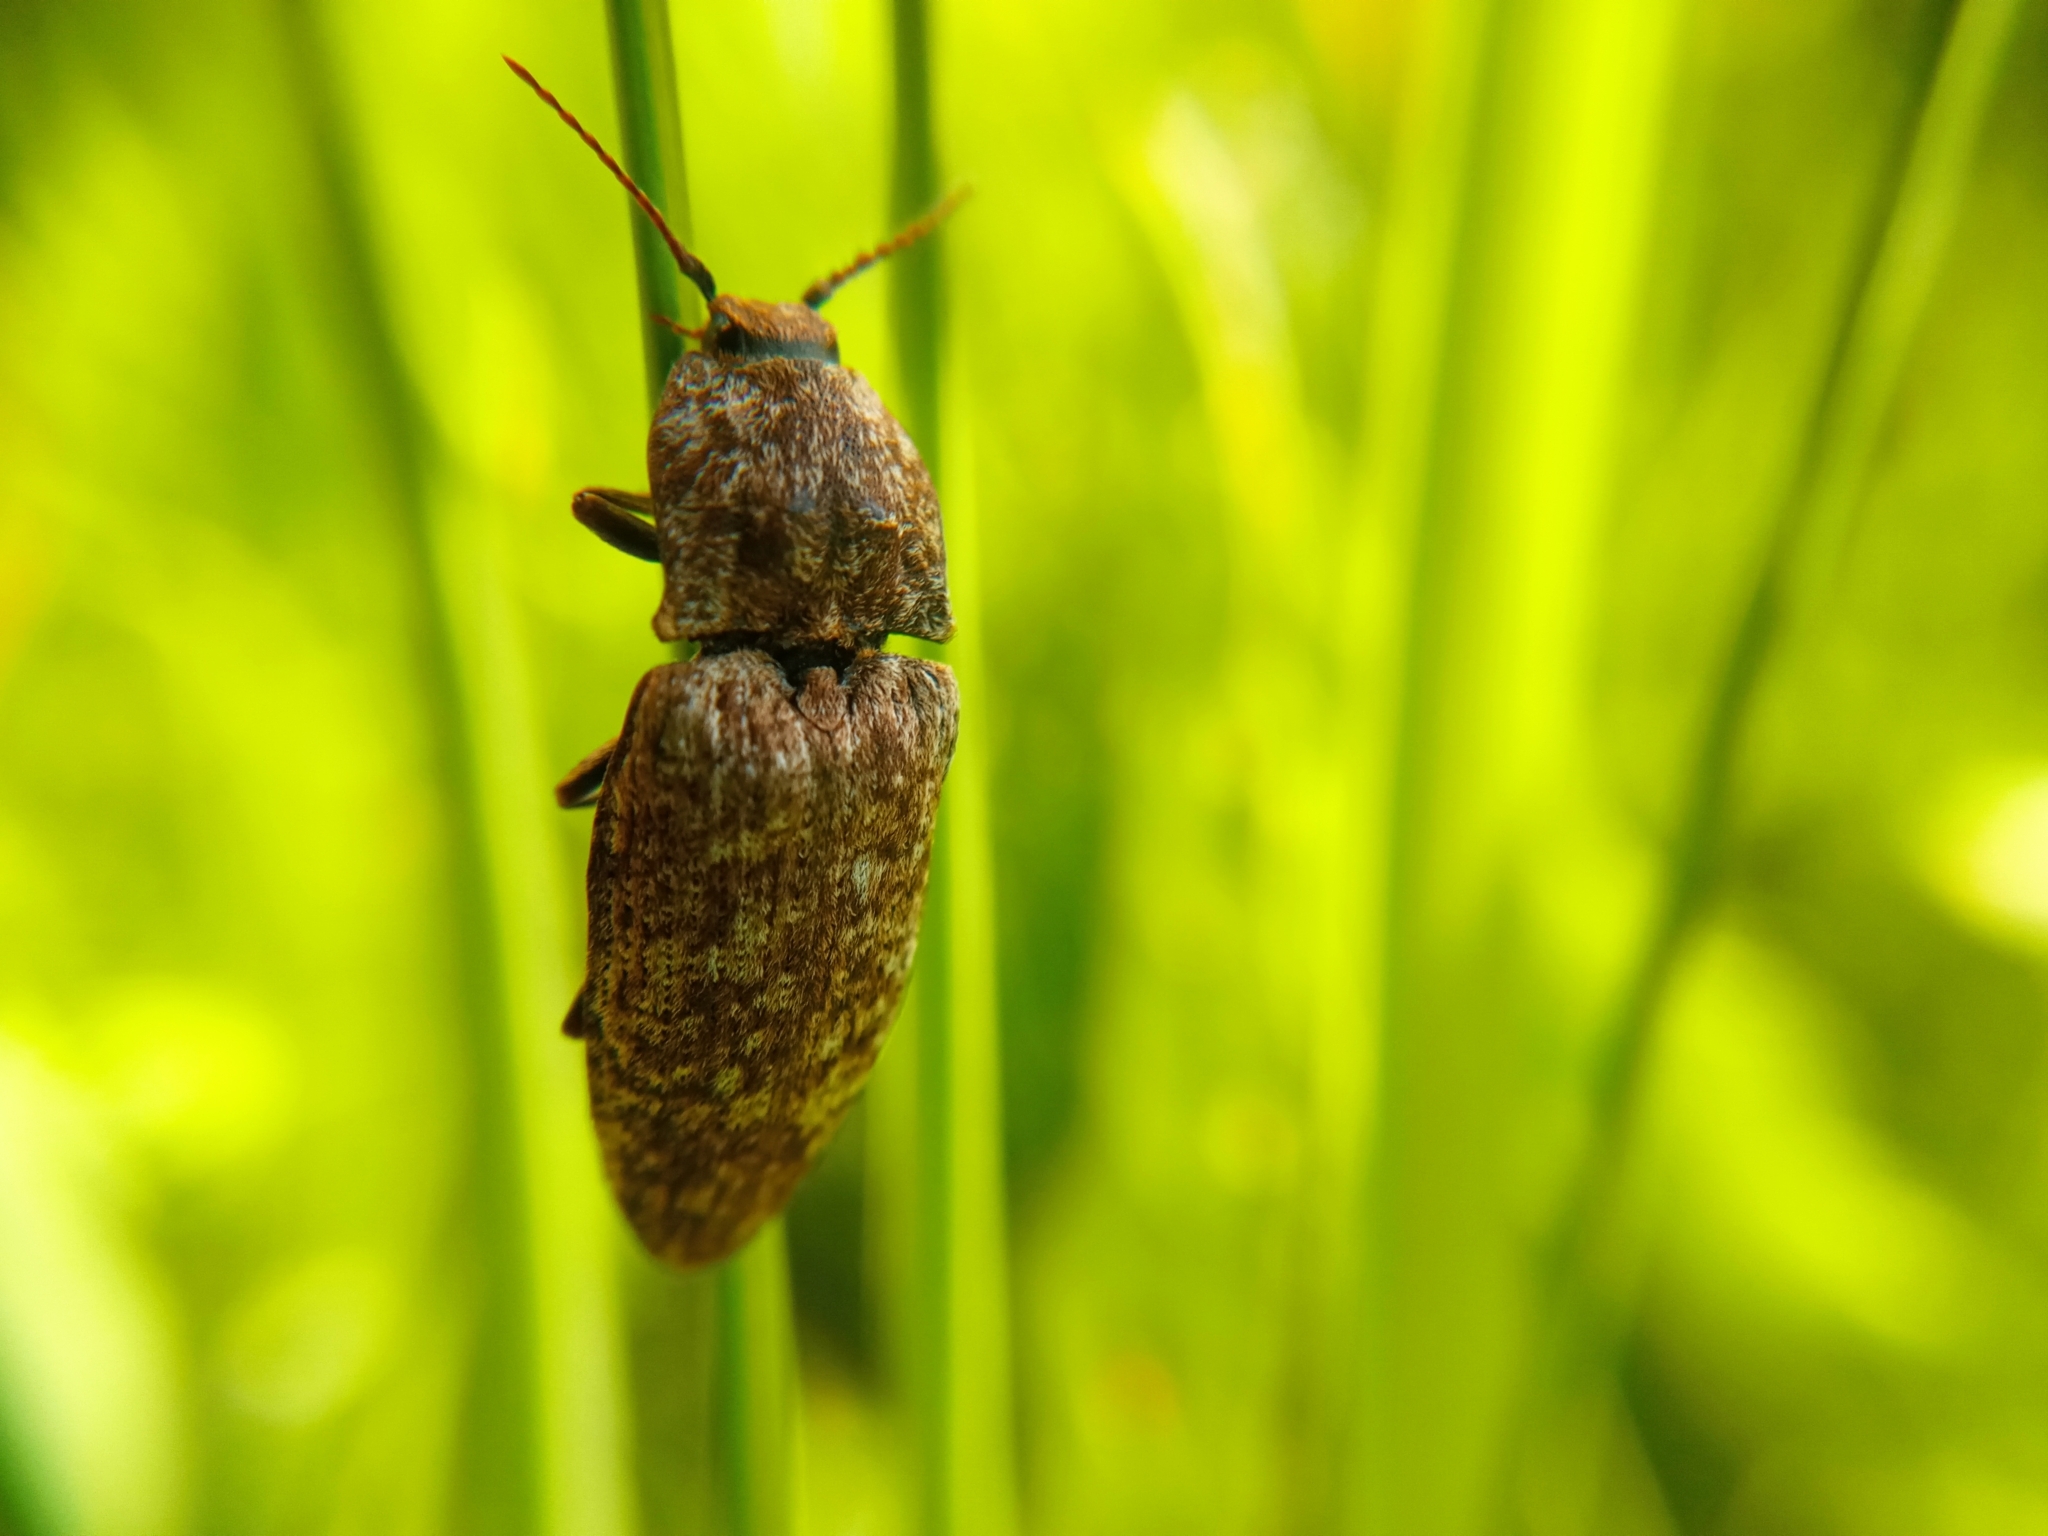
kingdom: Animalia
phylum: Arthropoda
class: Insecta
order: Coleoptera
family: Elateridae
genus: Agrypnus
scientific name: Agrypnus murinus
